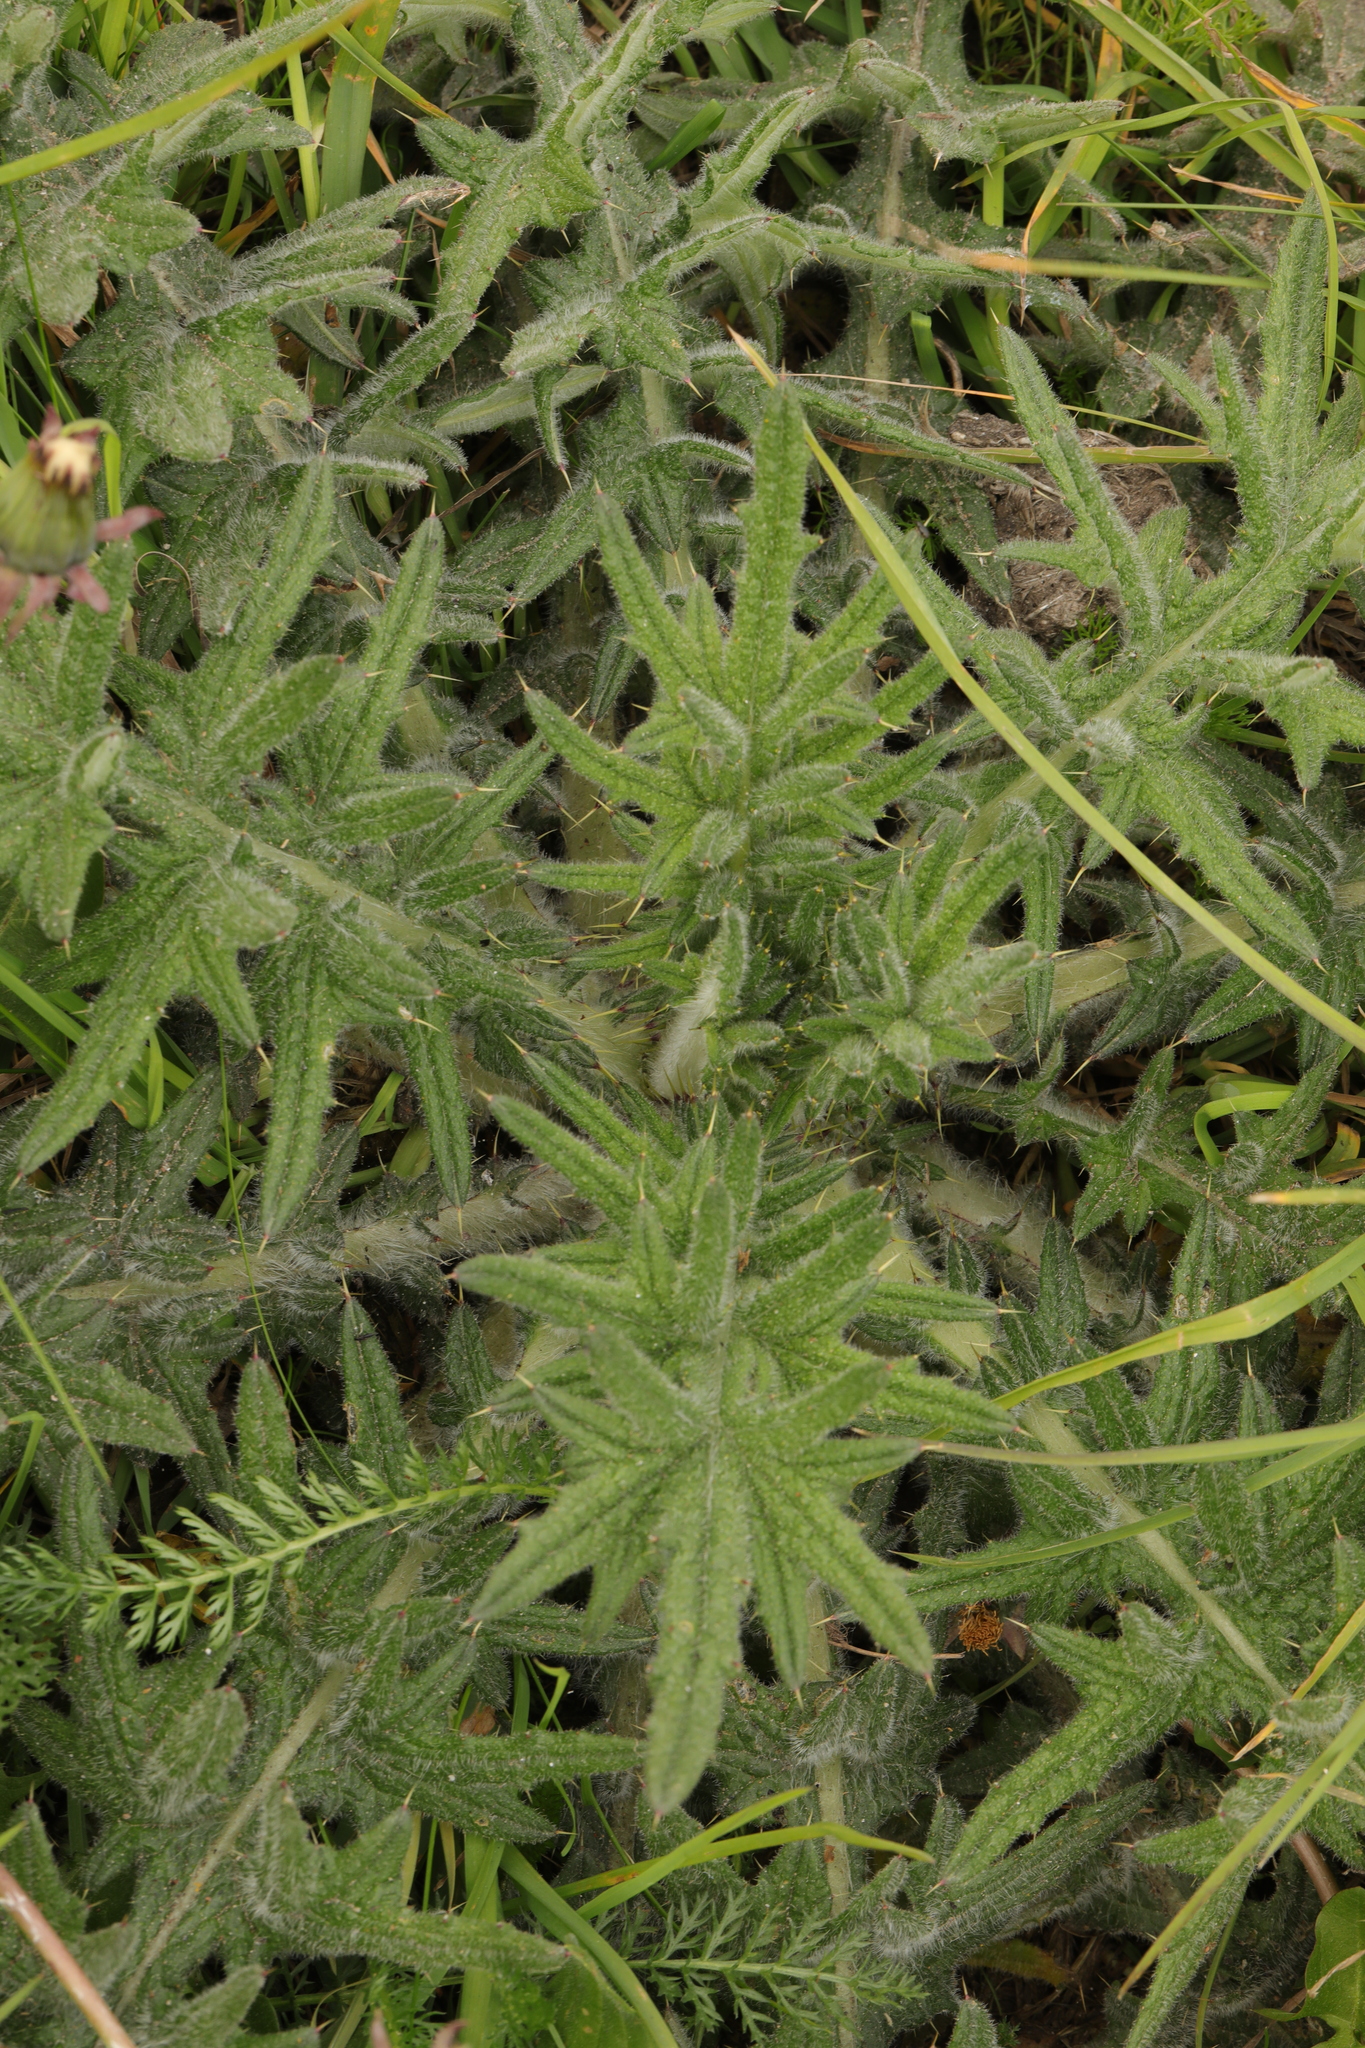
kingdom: Plantae
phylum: Tracheophyta
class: Magnoliopsida
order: Asterales
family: Asteraceae
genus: Cirsium
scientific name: Cirsium vulgare
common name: Bull thistle
